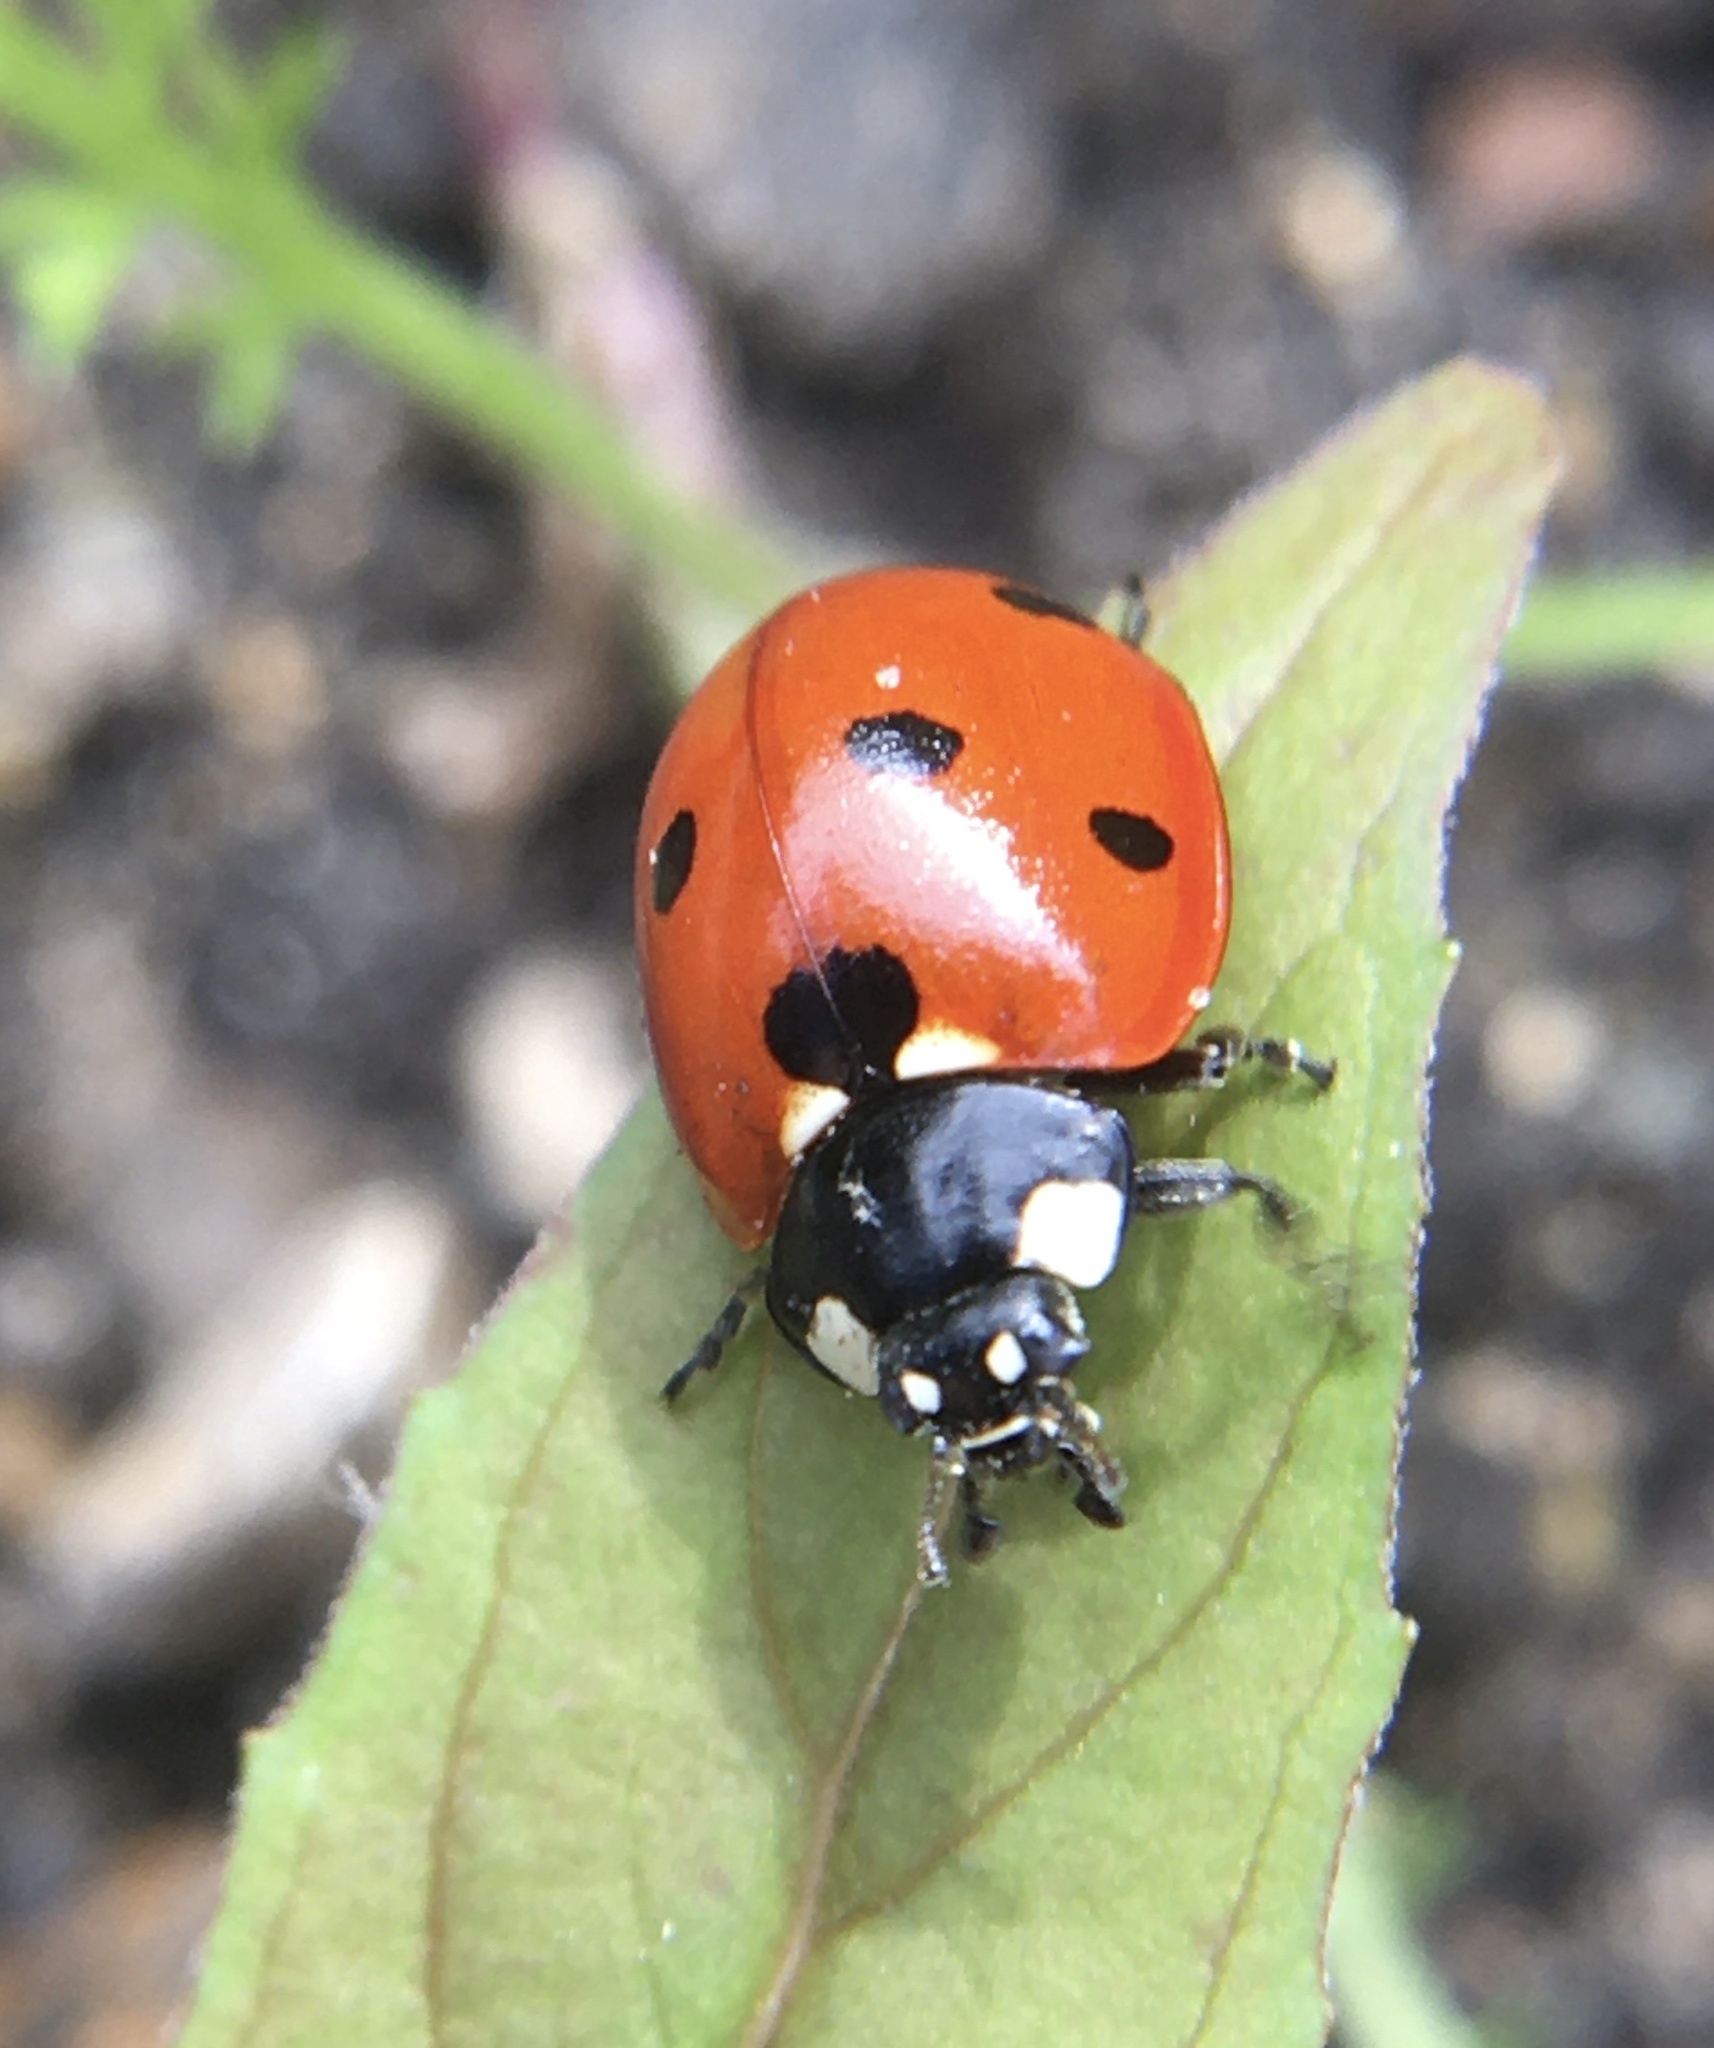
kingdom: Animalia
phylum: Arthropoda
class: Insecta
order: Coleoptera
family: Coccinellidae
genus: Coccinella
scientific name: Coccinella septempunctata
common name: Sevenspotted lady beetle
